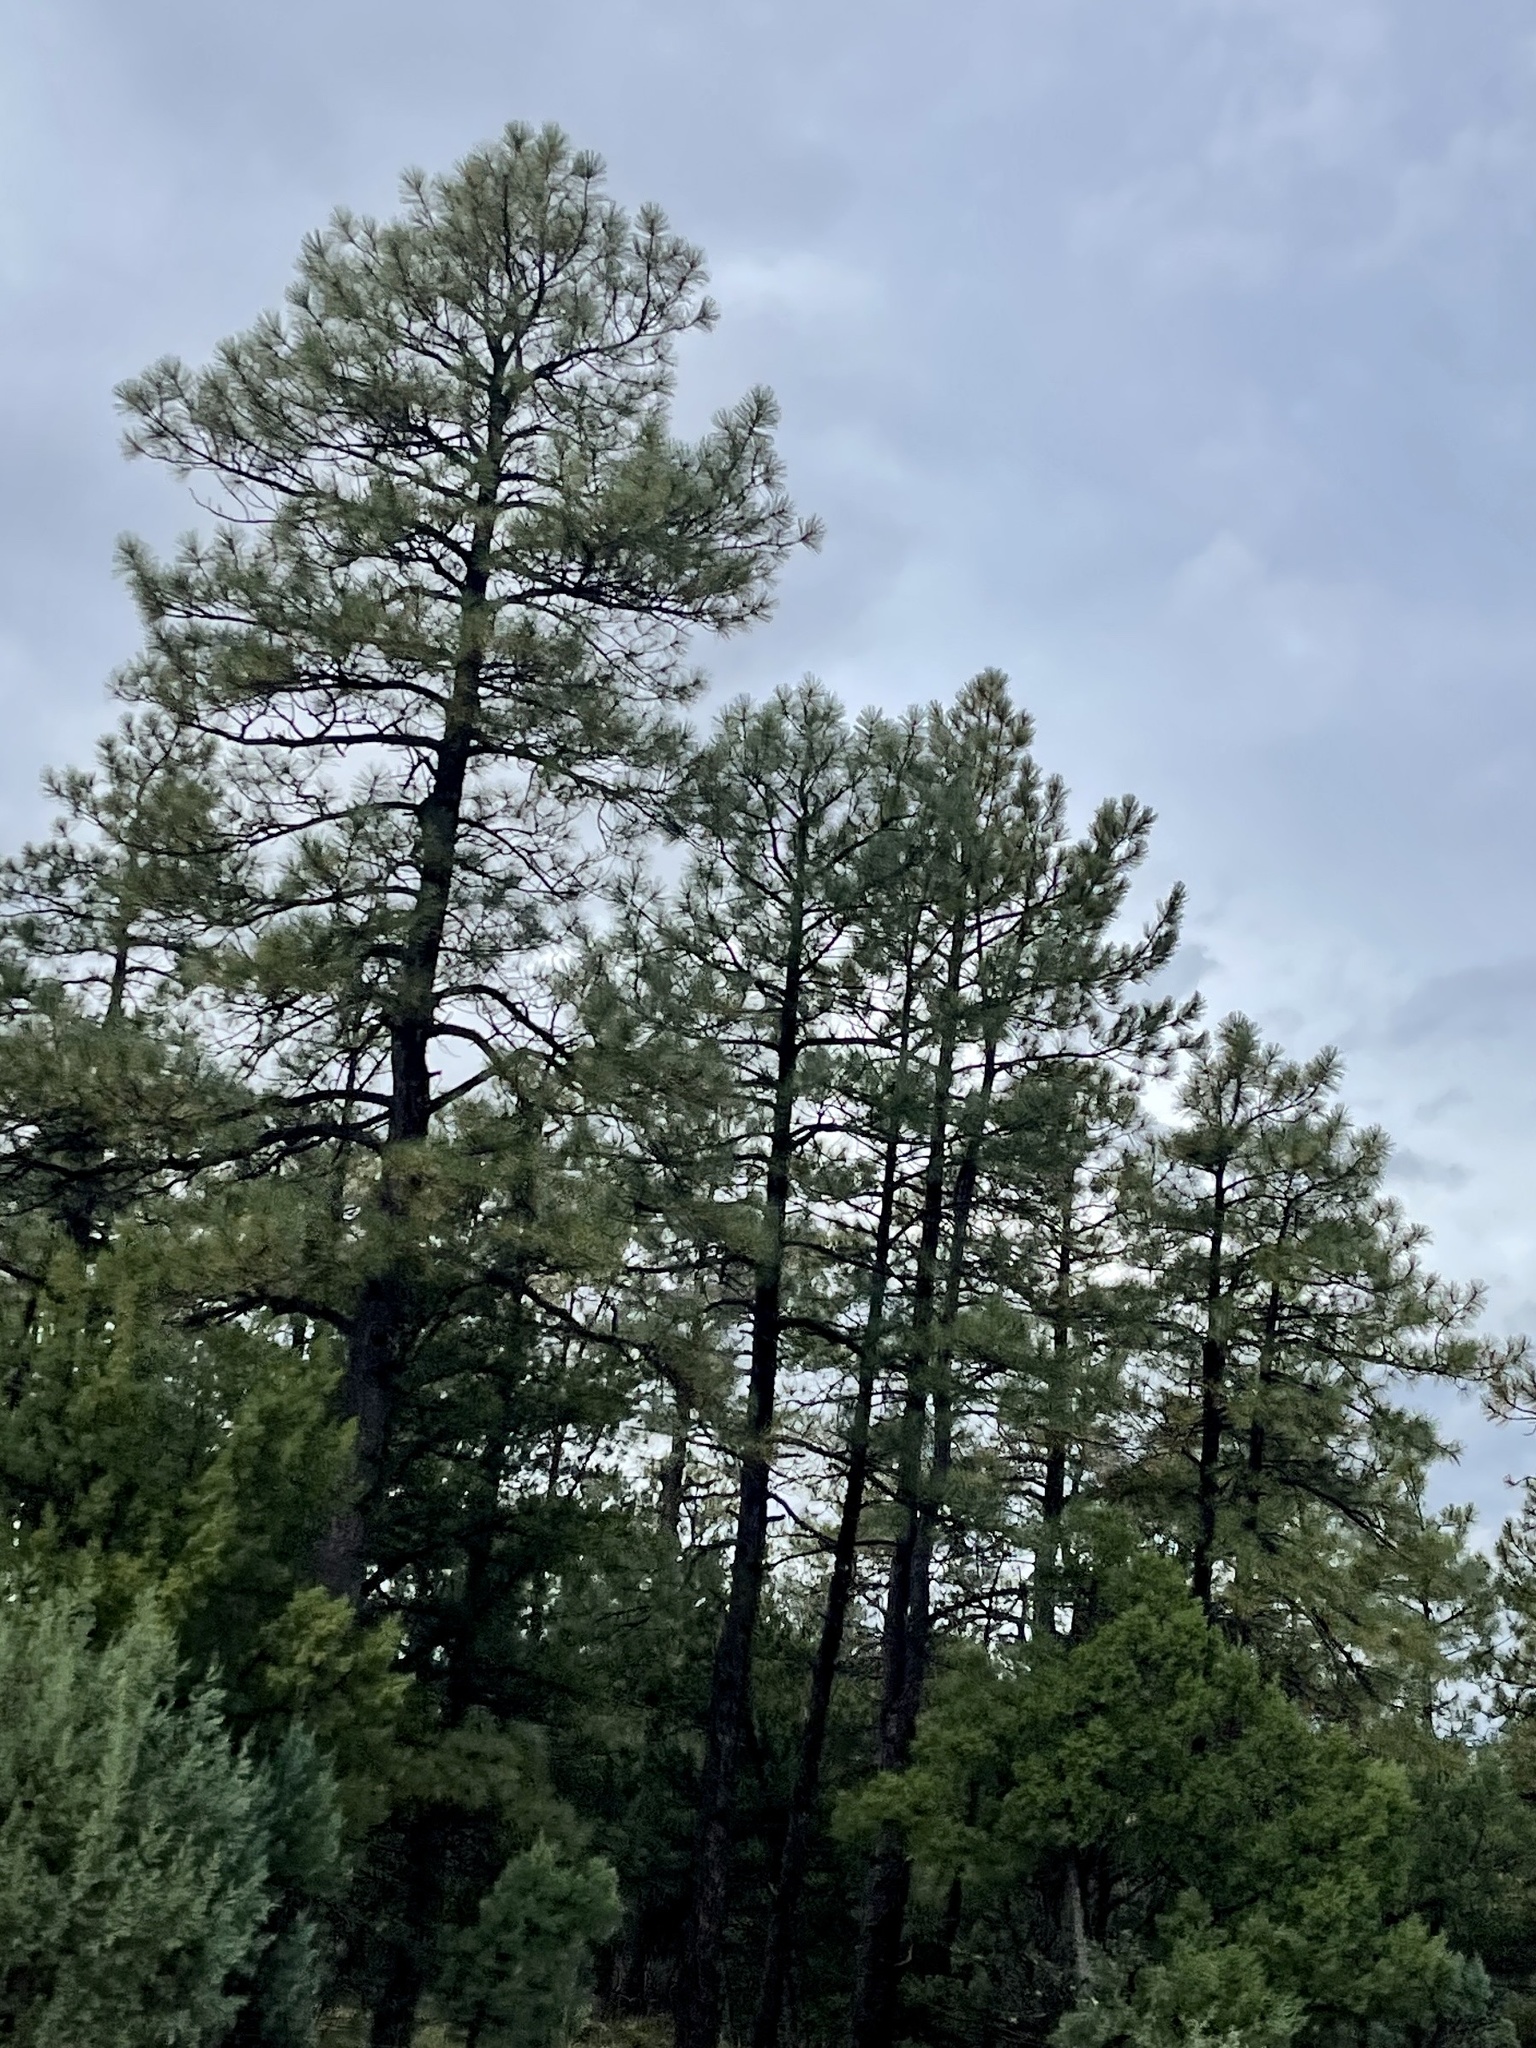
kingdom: Plantae
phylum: Tracheophyta
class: Pinopsida
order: Pinales
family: Pinaceae
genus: Pinus
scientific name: Pinus ponderosa
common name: Western yellow-pine
